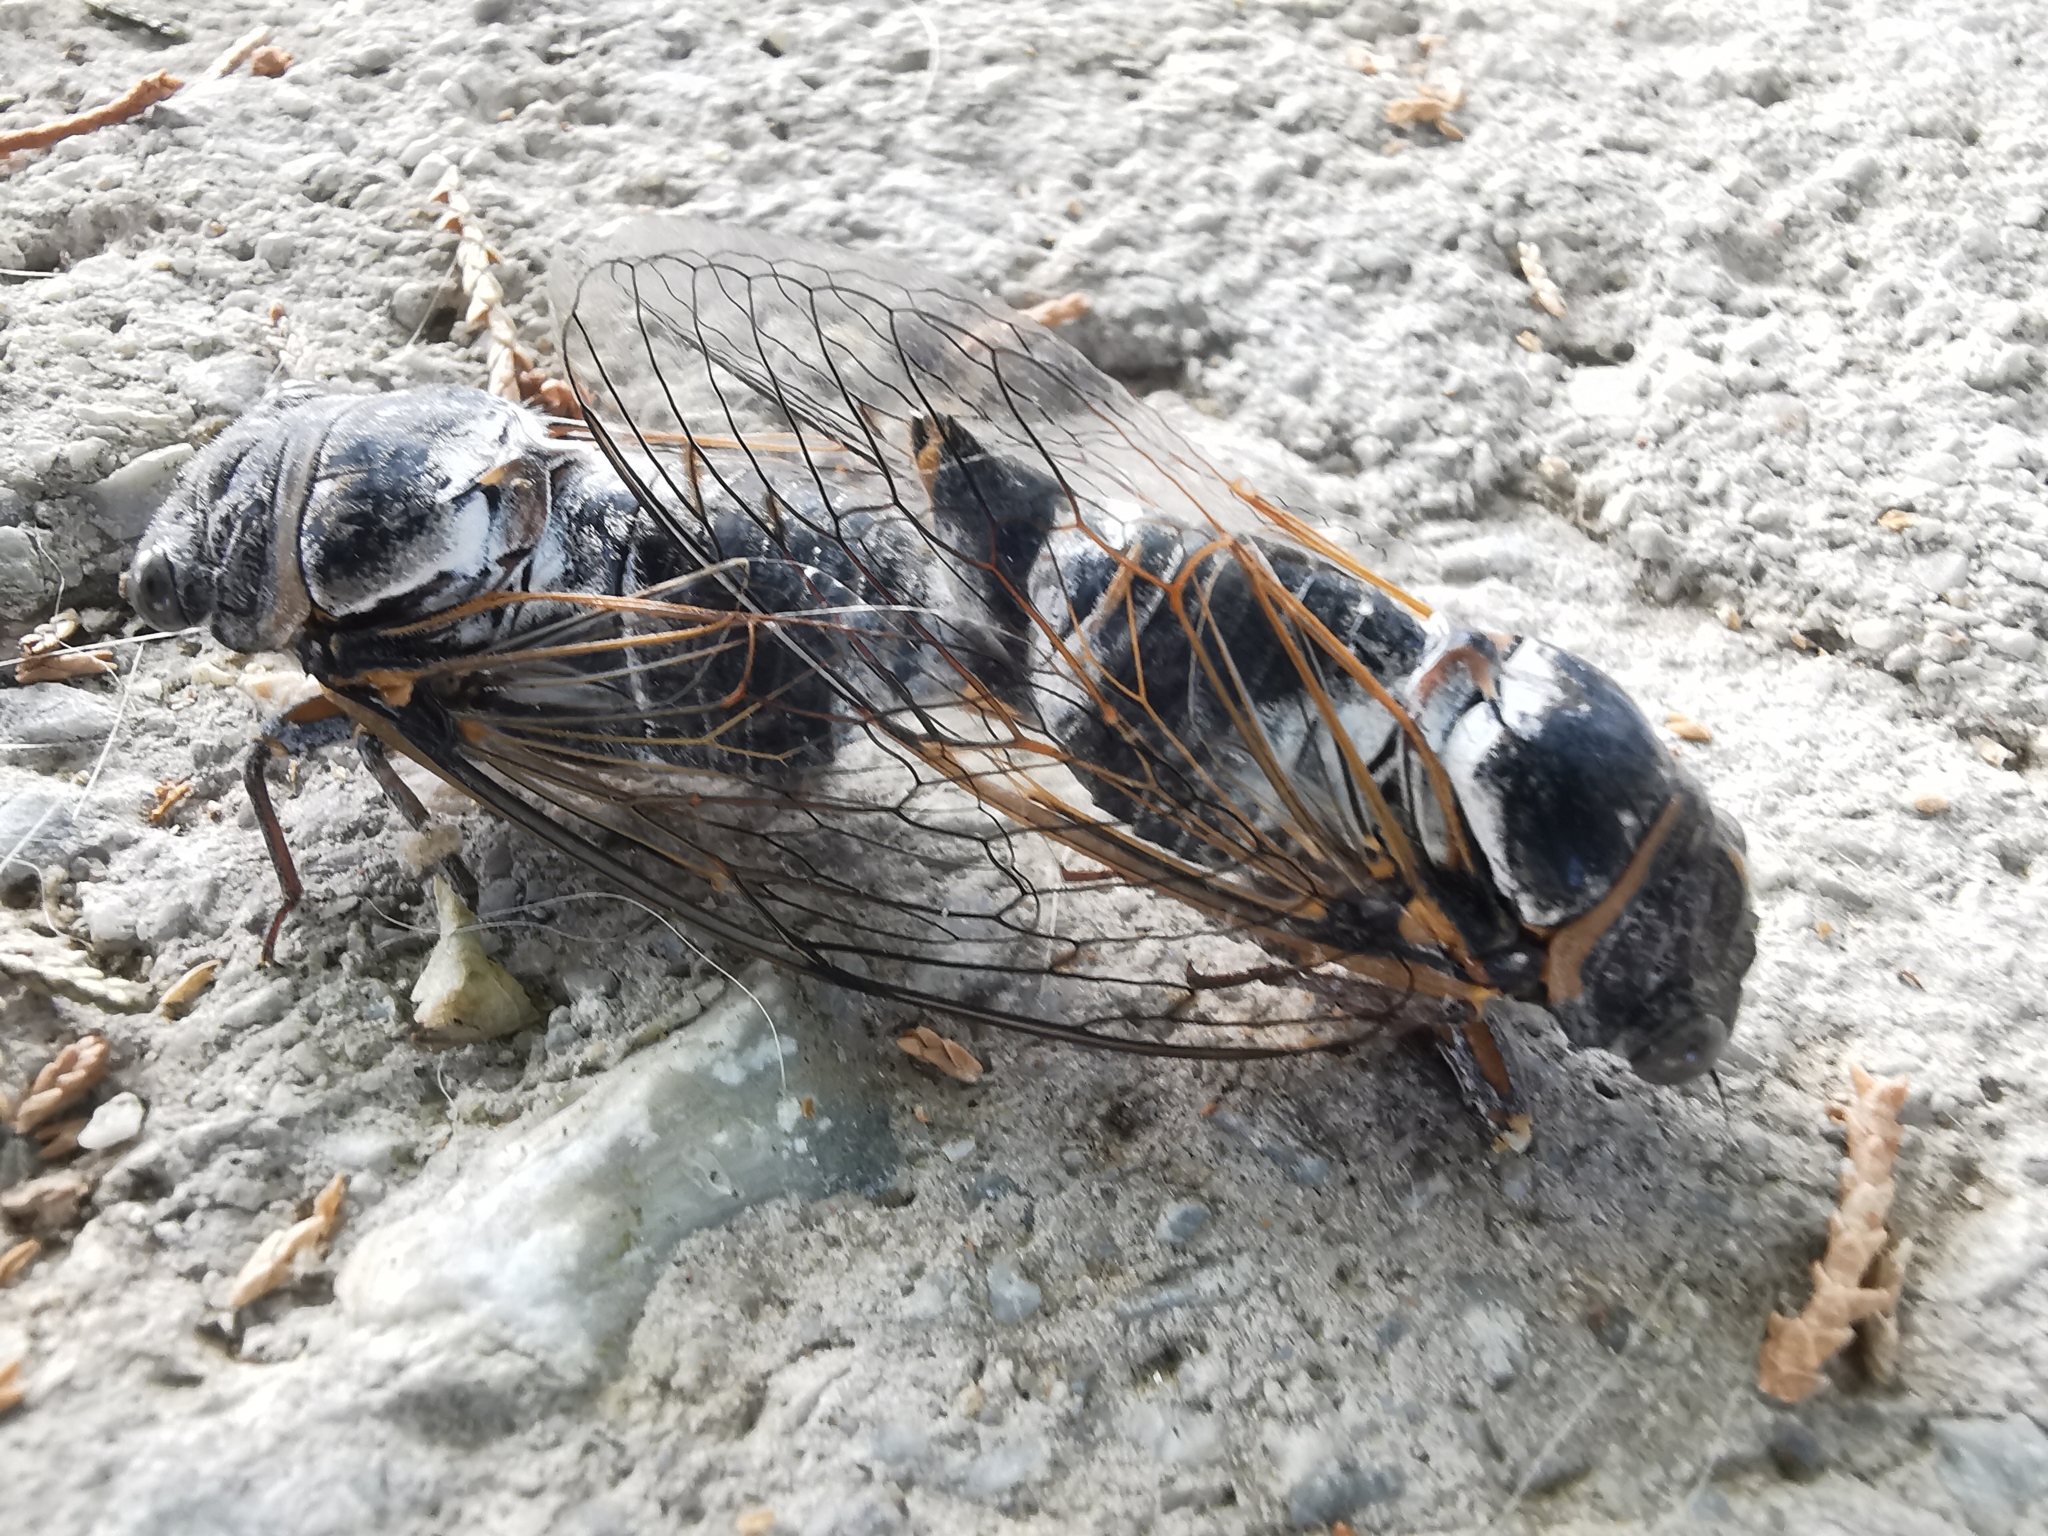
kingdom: Animalia
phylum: Arthropoda
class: Insecta
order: Hemiptera
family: Cicadidae
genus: Lyristes
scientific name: Lyristes plebejus
